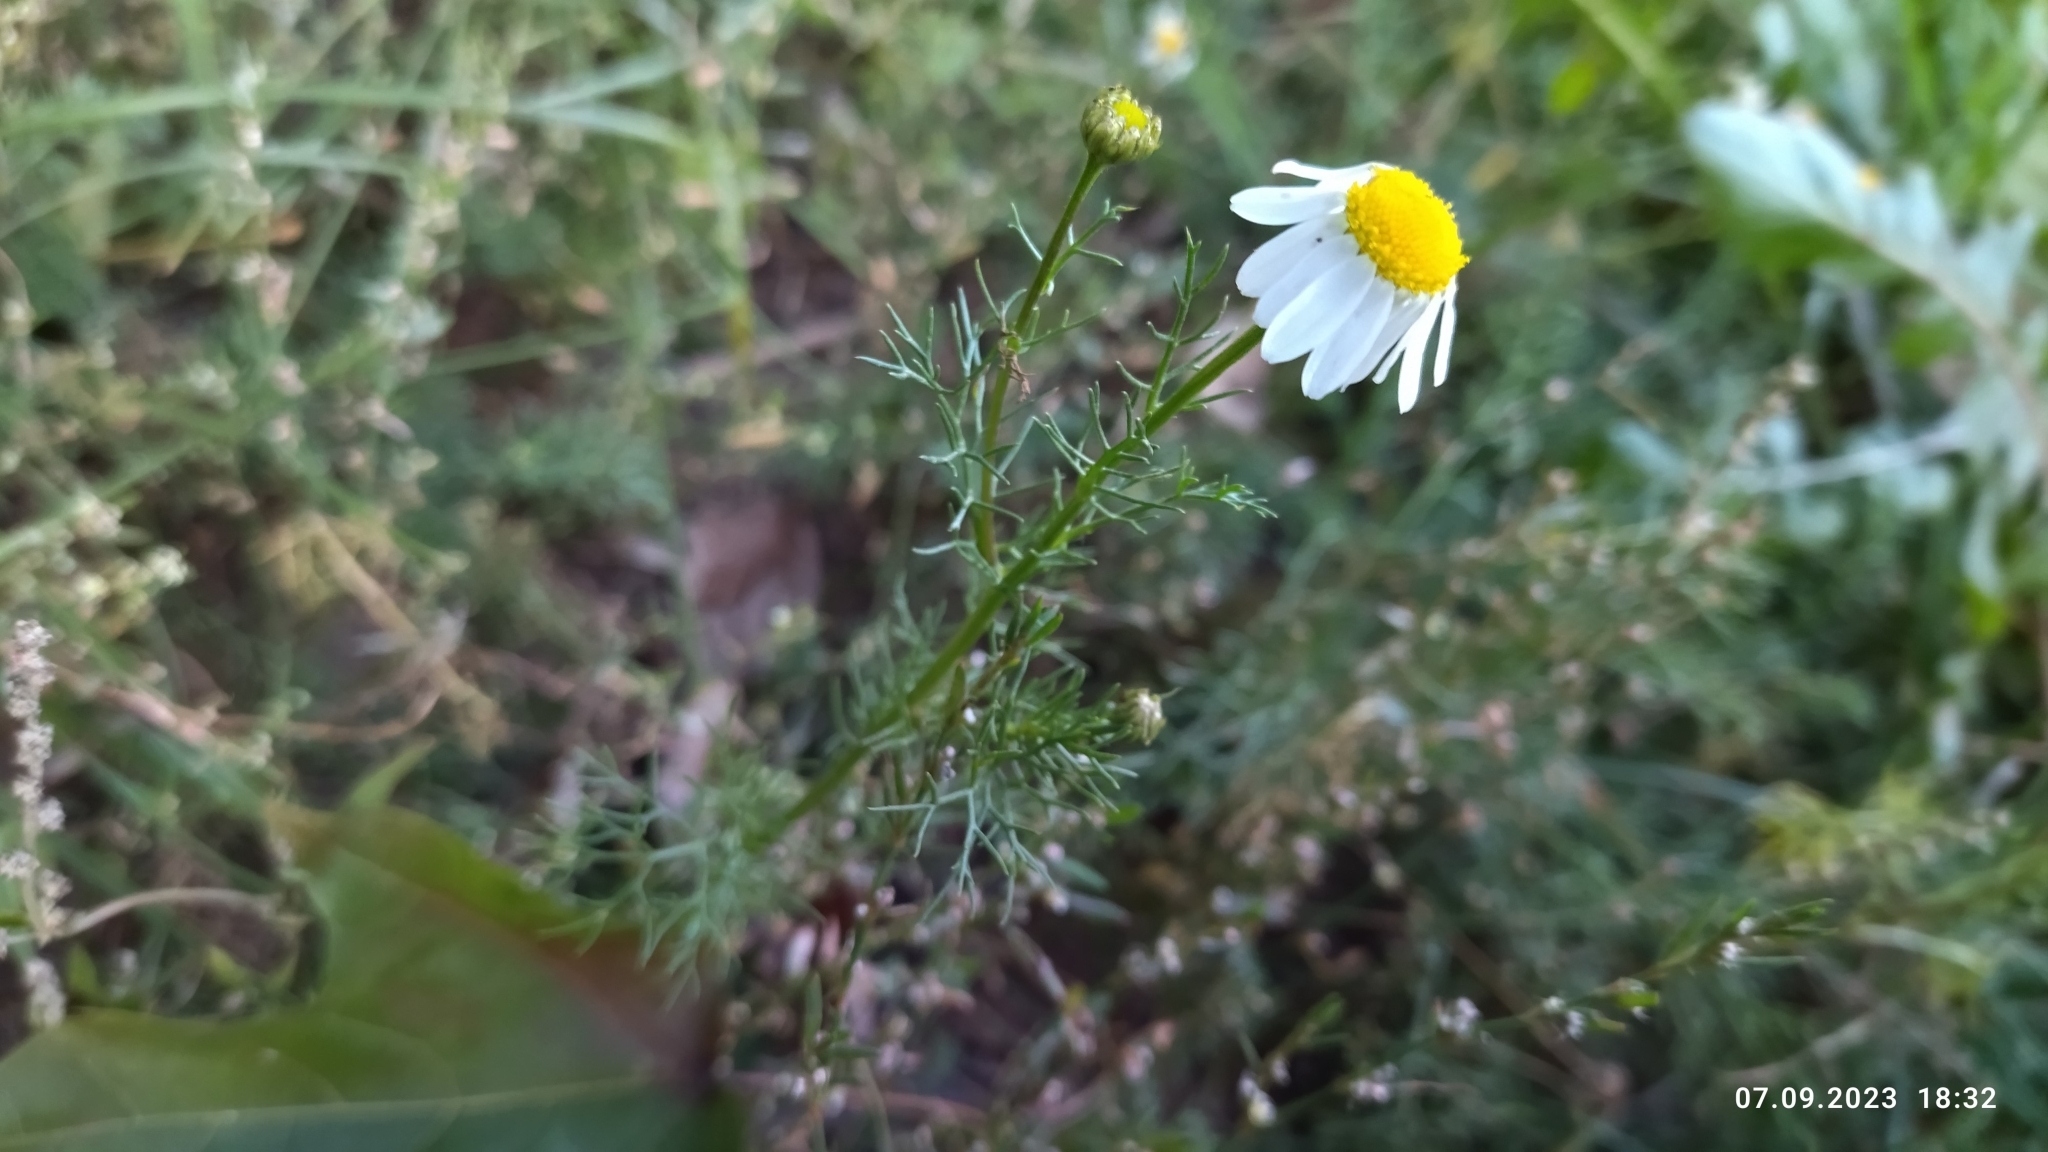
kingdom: Plantae
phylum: Tracheophyta
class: Magnoliopsida
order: Asterales
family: Asteraceae
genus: Tripleurospermum
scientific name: Tripleurospermum inodorum
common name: Scentless mayweed
